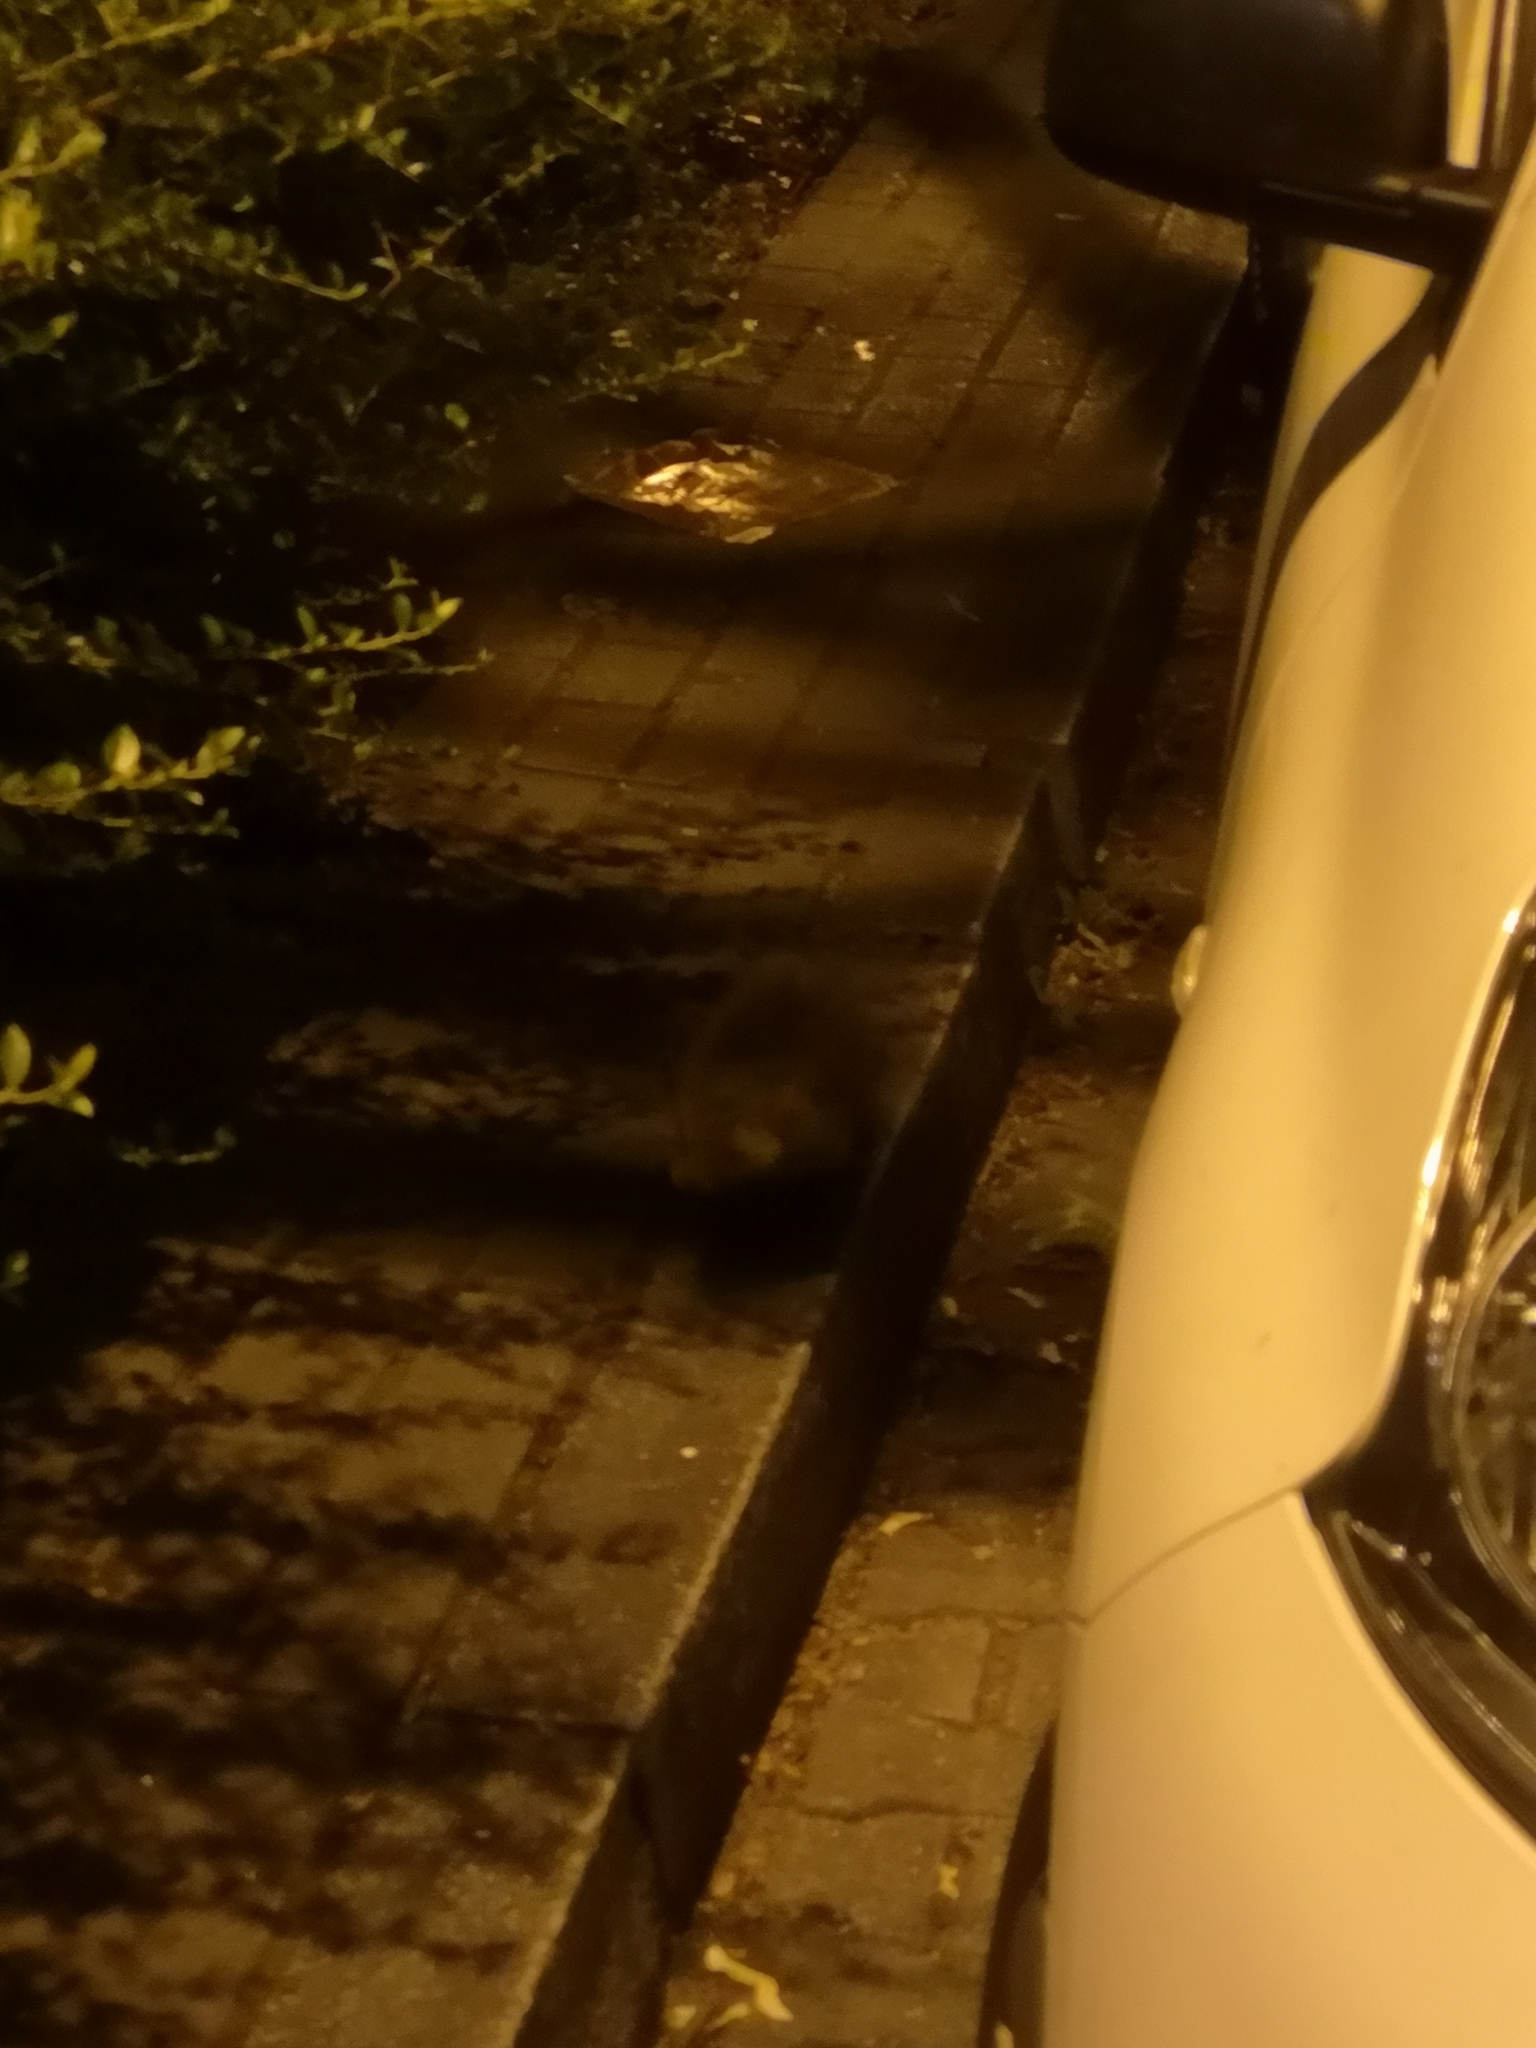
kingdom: Animalia
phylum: Chordata
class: Mammalia
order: Carnivora
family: Mustelidae
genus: Martes
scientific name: Martes foina
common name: Beech marten
